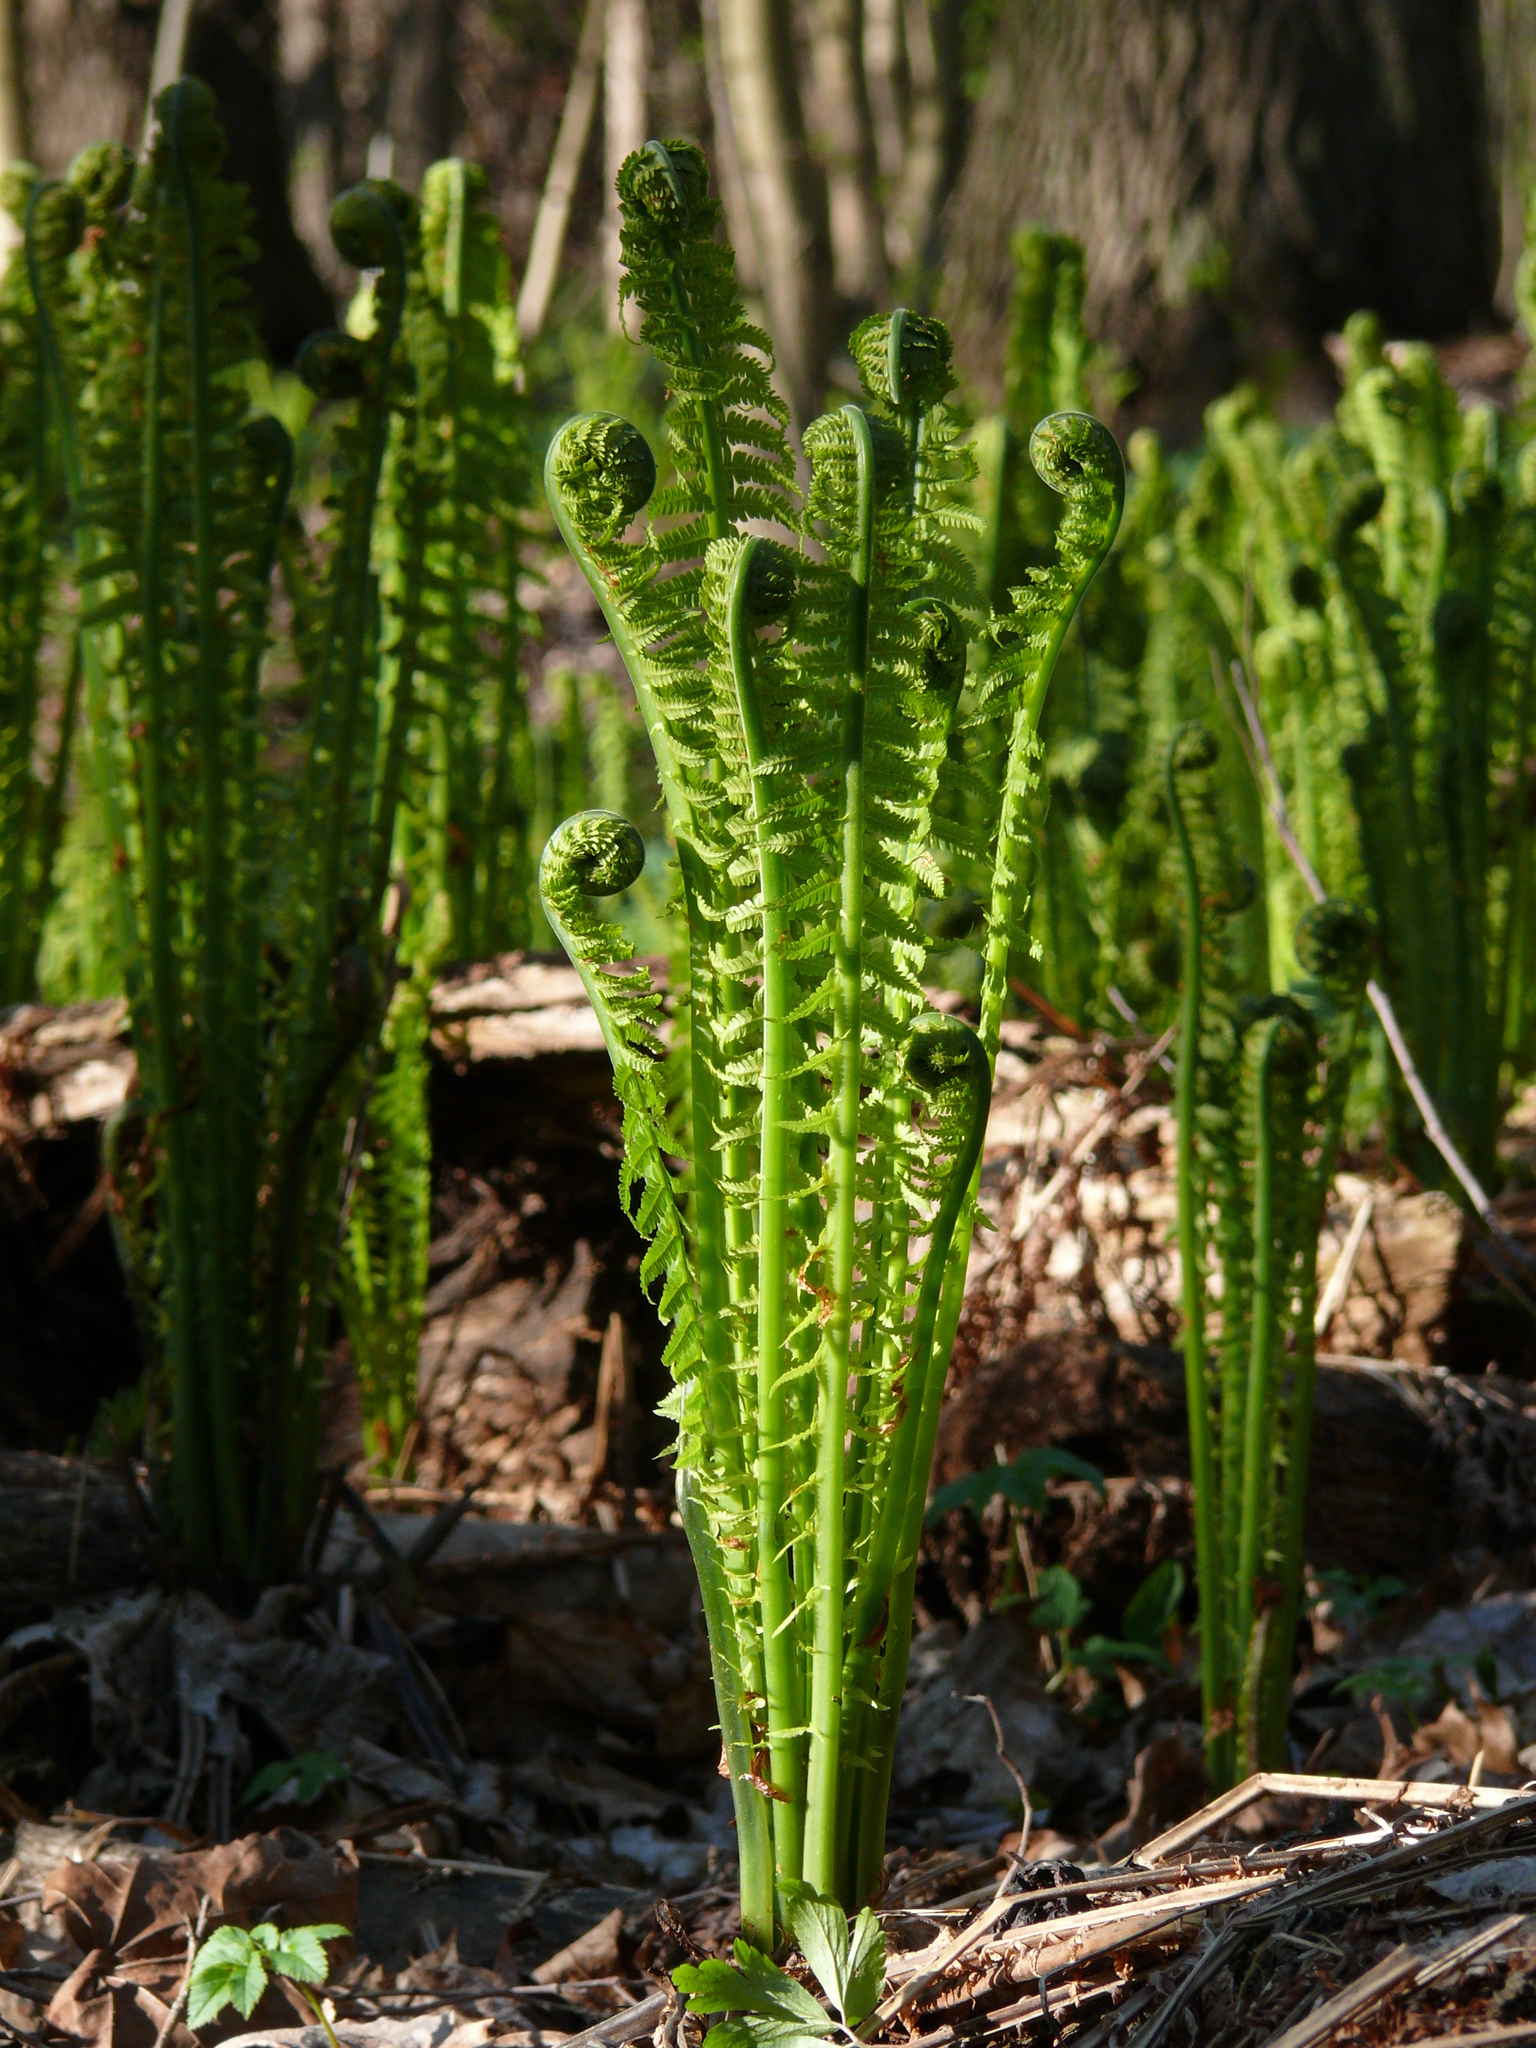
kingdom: Plantae
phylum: Tracheophyta
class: Polypodiopsida
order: Polypodiales
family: Onocleaceae
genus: Matteuccia
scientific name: Matteuccia struthiopteris
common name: Ostrich fern
